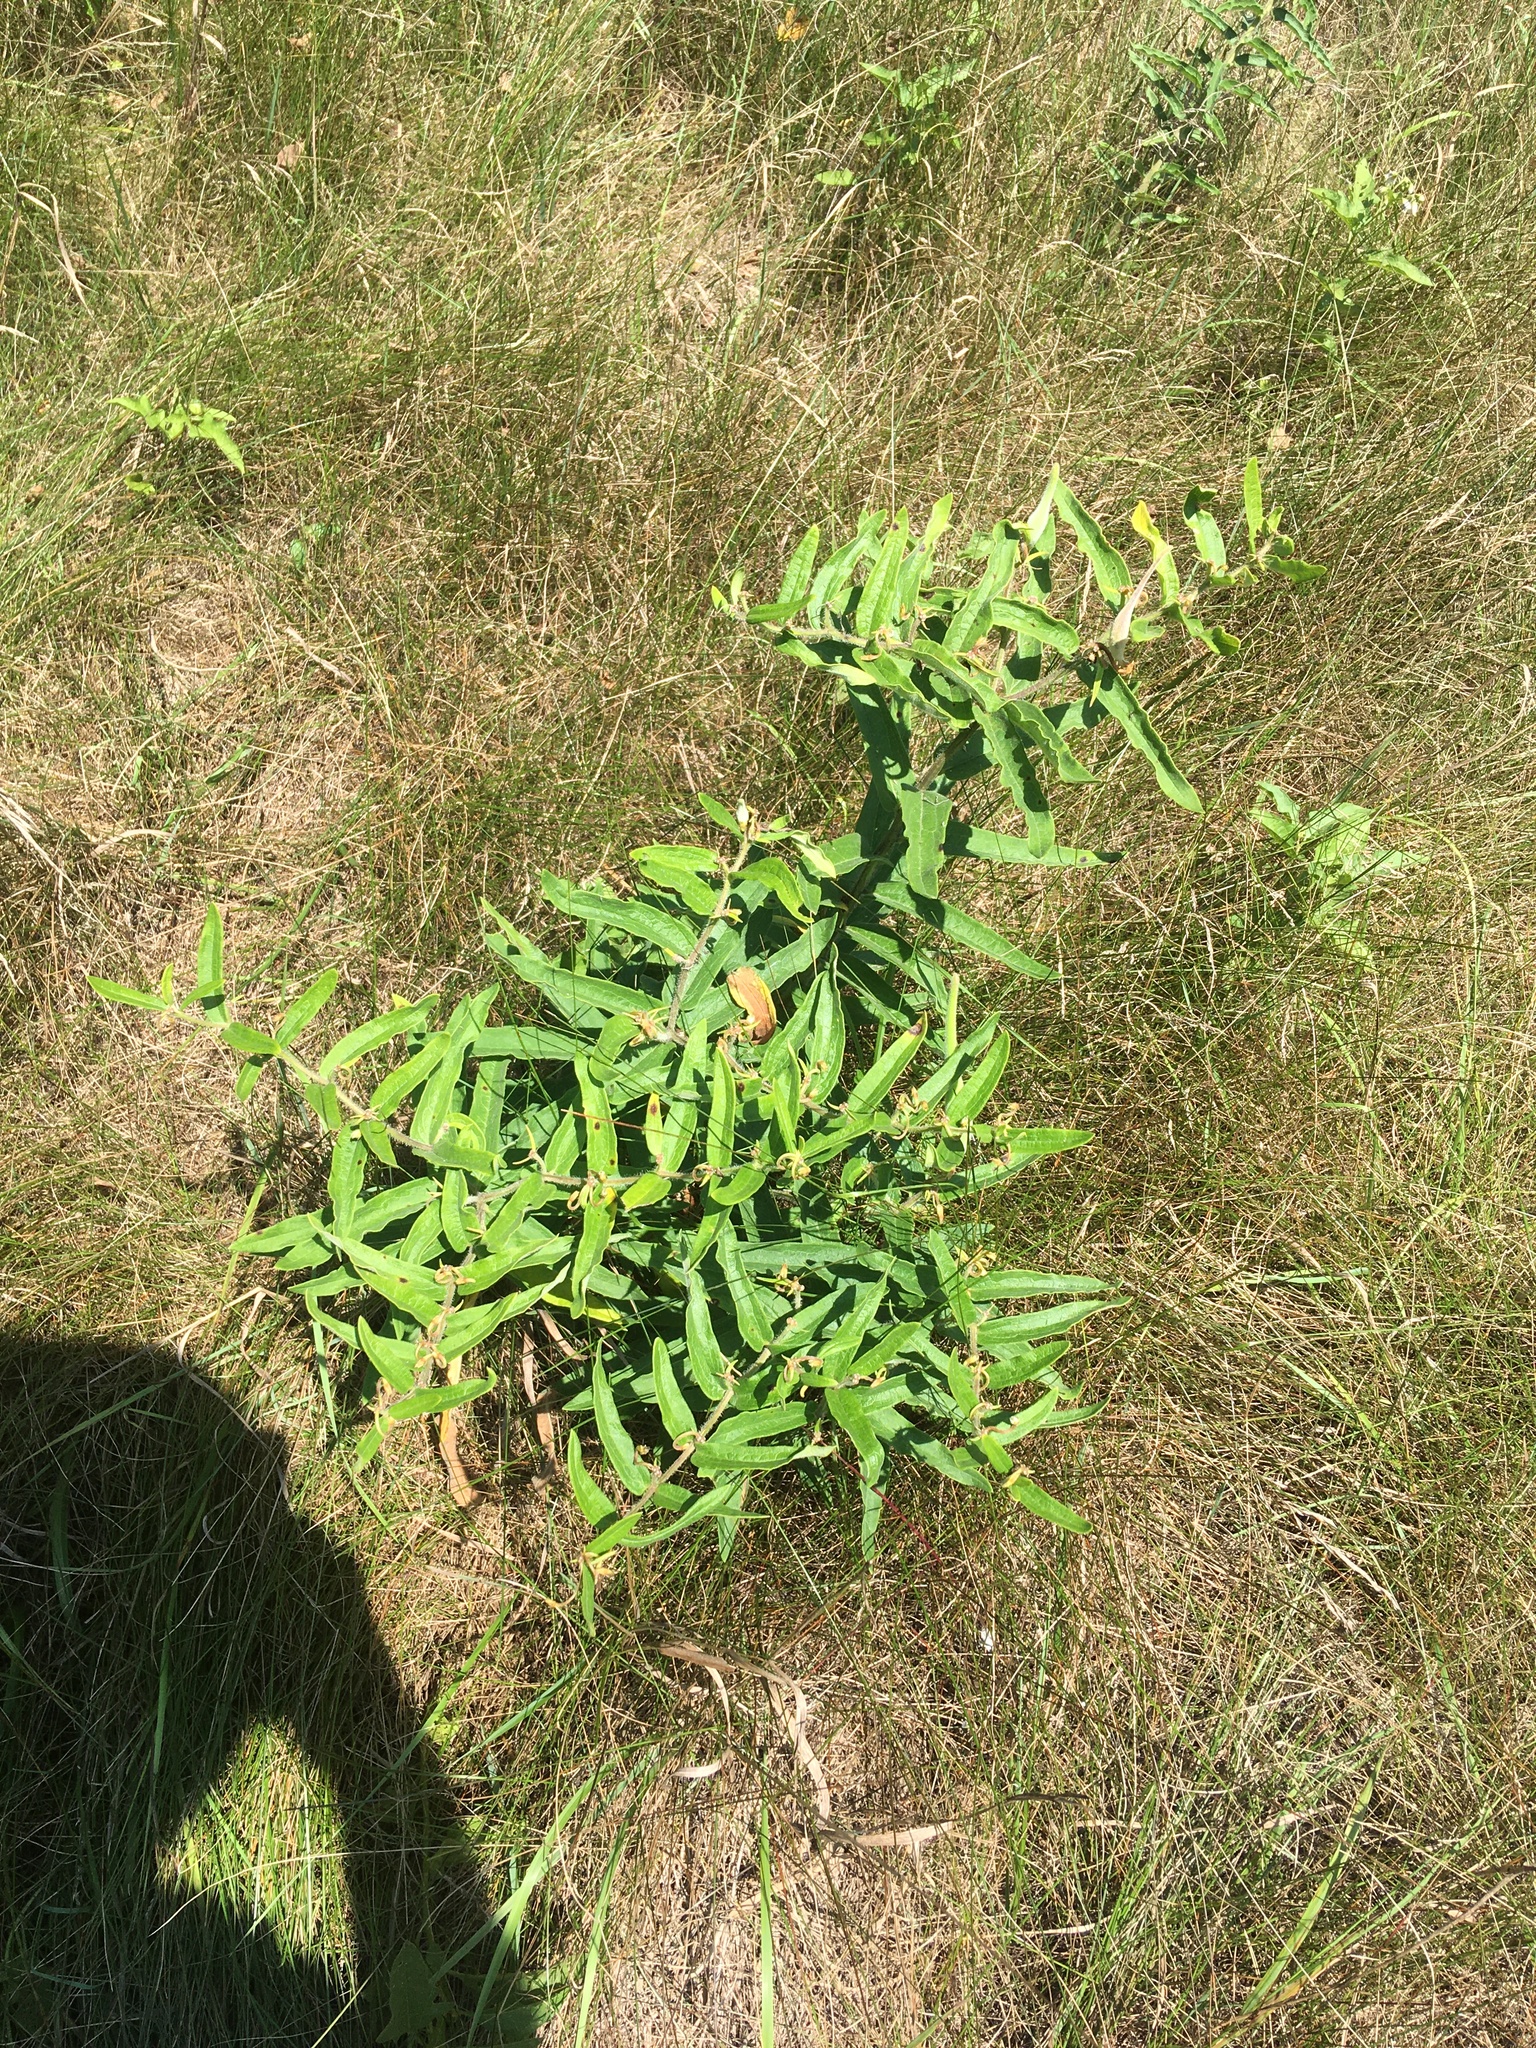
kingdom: Plantae
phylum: Tracheophyta
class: Magnoliopsida
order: Gentianales
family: Apocynaceae
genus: Asclepias
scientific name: Asclepias tuberosa
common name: Butterfly milkweed
